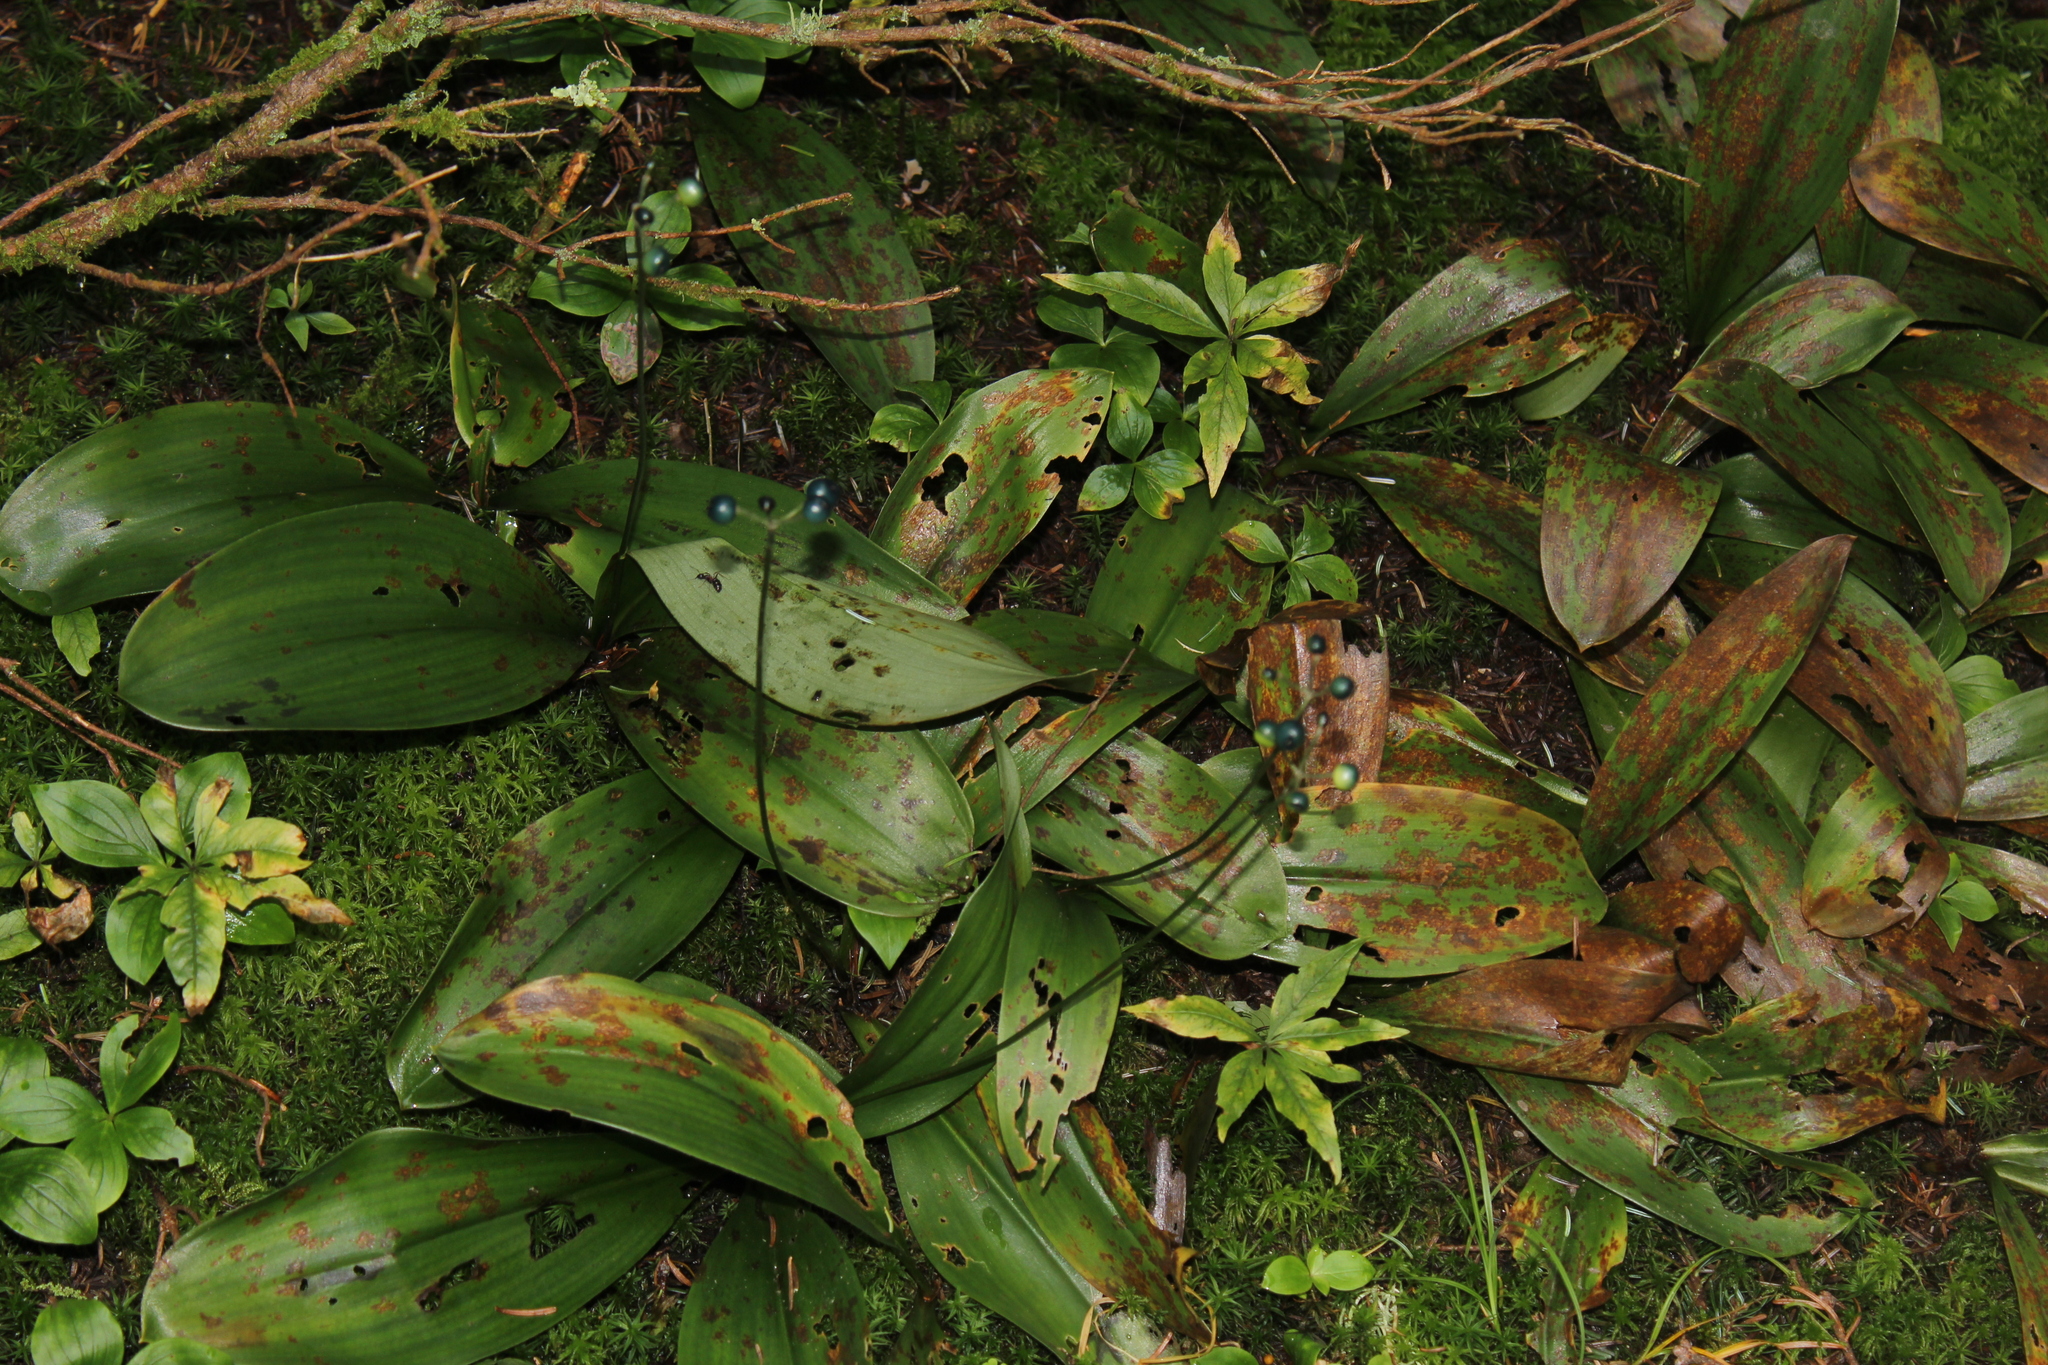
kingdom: Plantae
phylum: Tracheophyta
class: Liliopsida
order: Liliales
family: Liliaceae
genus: Clintonia
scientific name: Clintonia borealis
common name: Yellow clintonia
